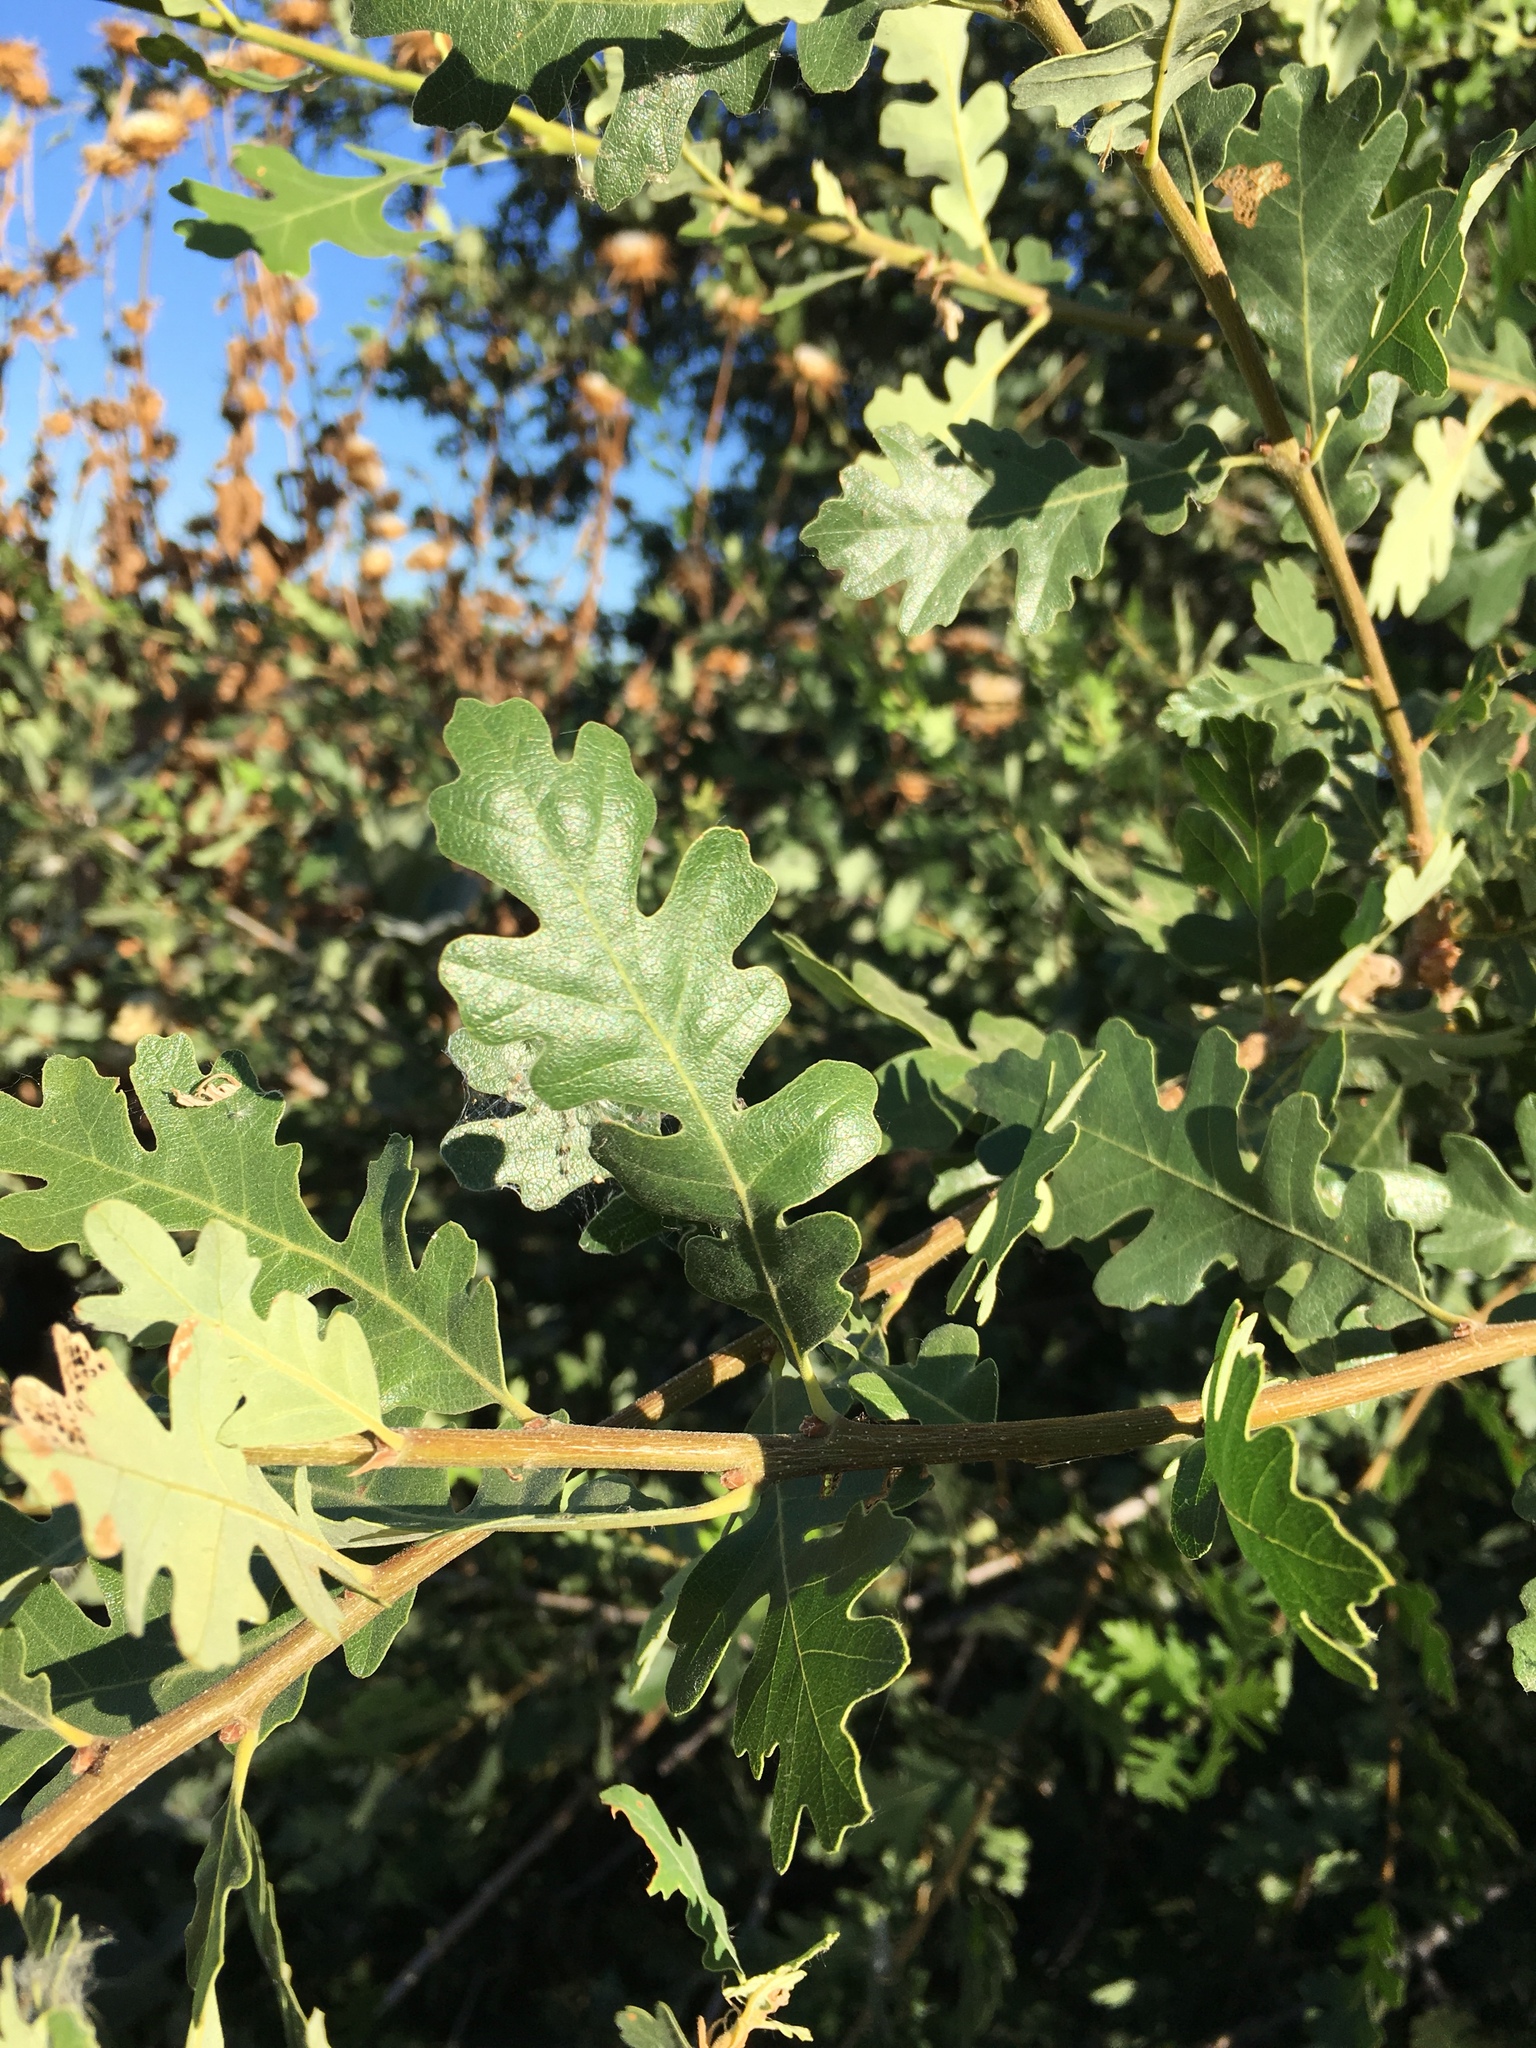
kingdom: Plantae
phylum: Tracheophyta
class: Magnoliopsida
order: Fagales
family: Fagaceae
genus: Quercus
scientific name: Quercus lobata
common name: Valley oak
